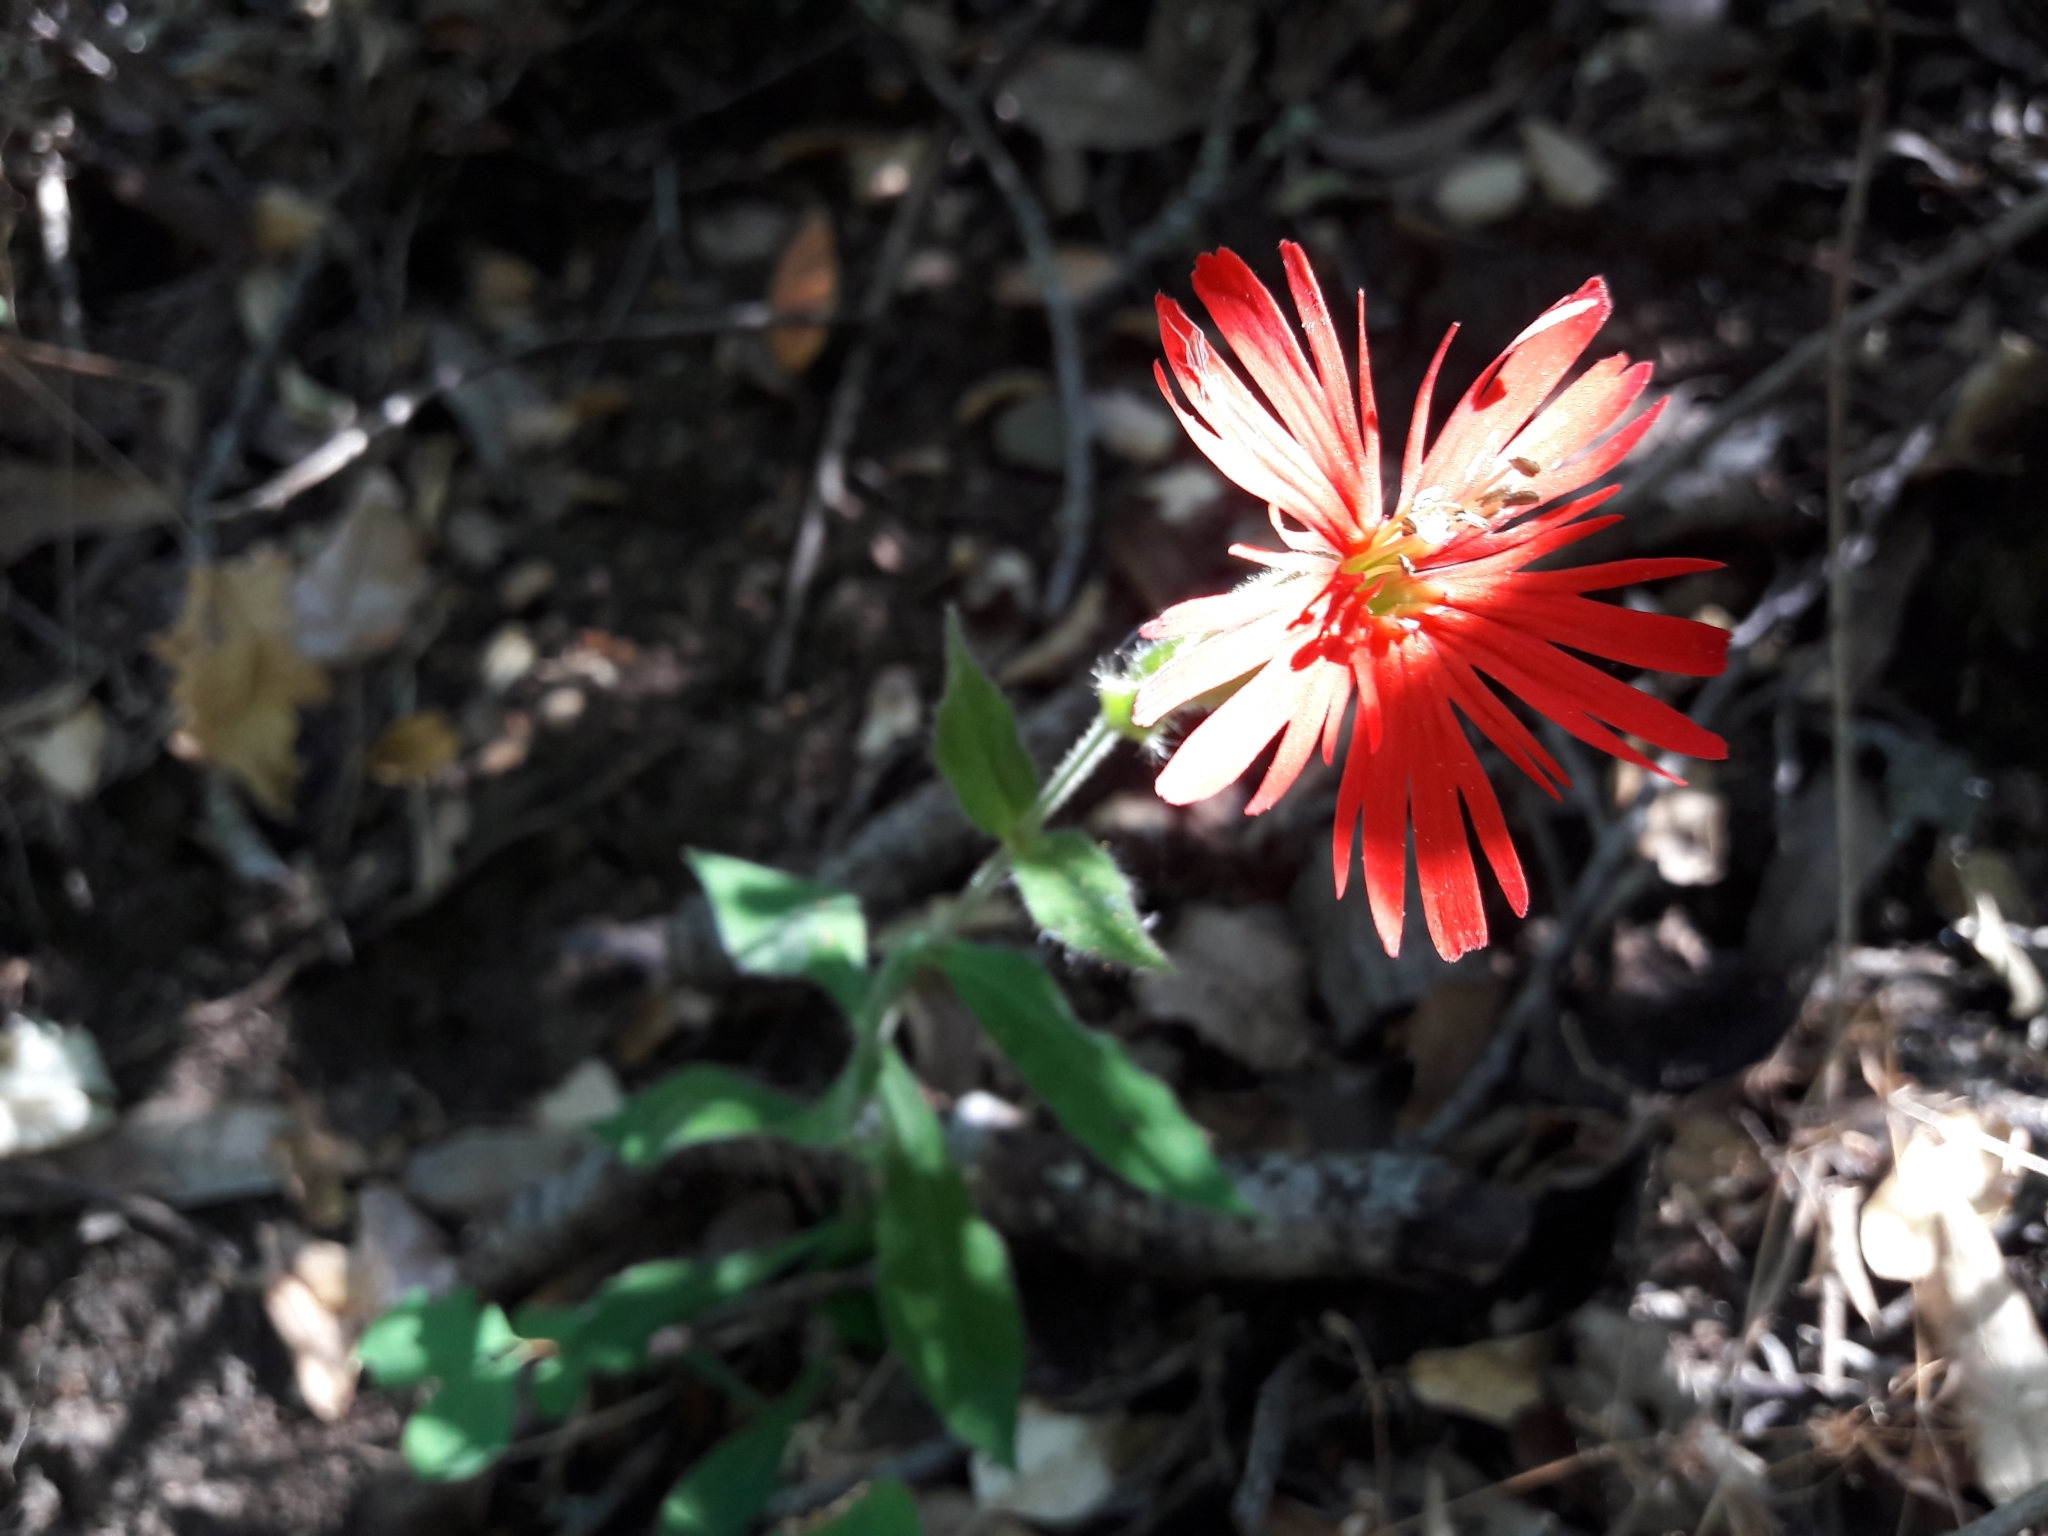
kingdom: Plantae
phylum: Tracheophyta
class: Magnoliopsida
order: Caryophyllales
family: Caryophyllaceae
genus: Silene
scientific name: Silene laciniata
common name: Indian-pink
